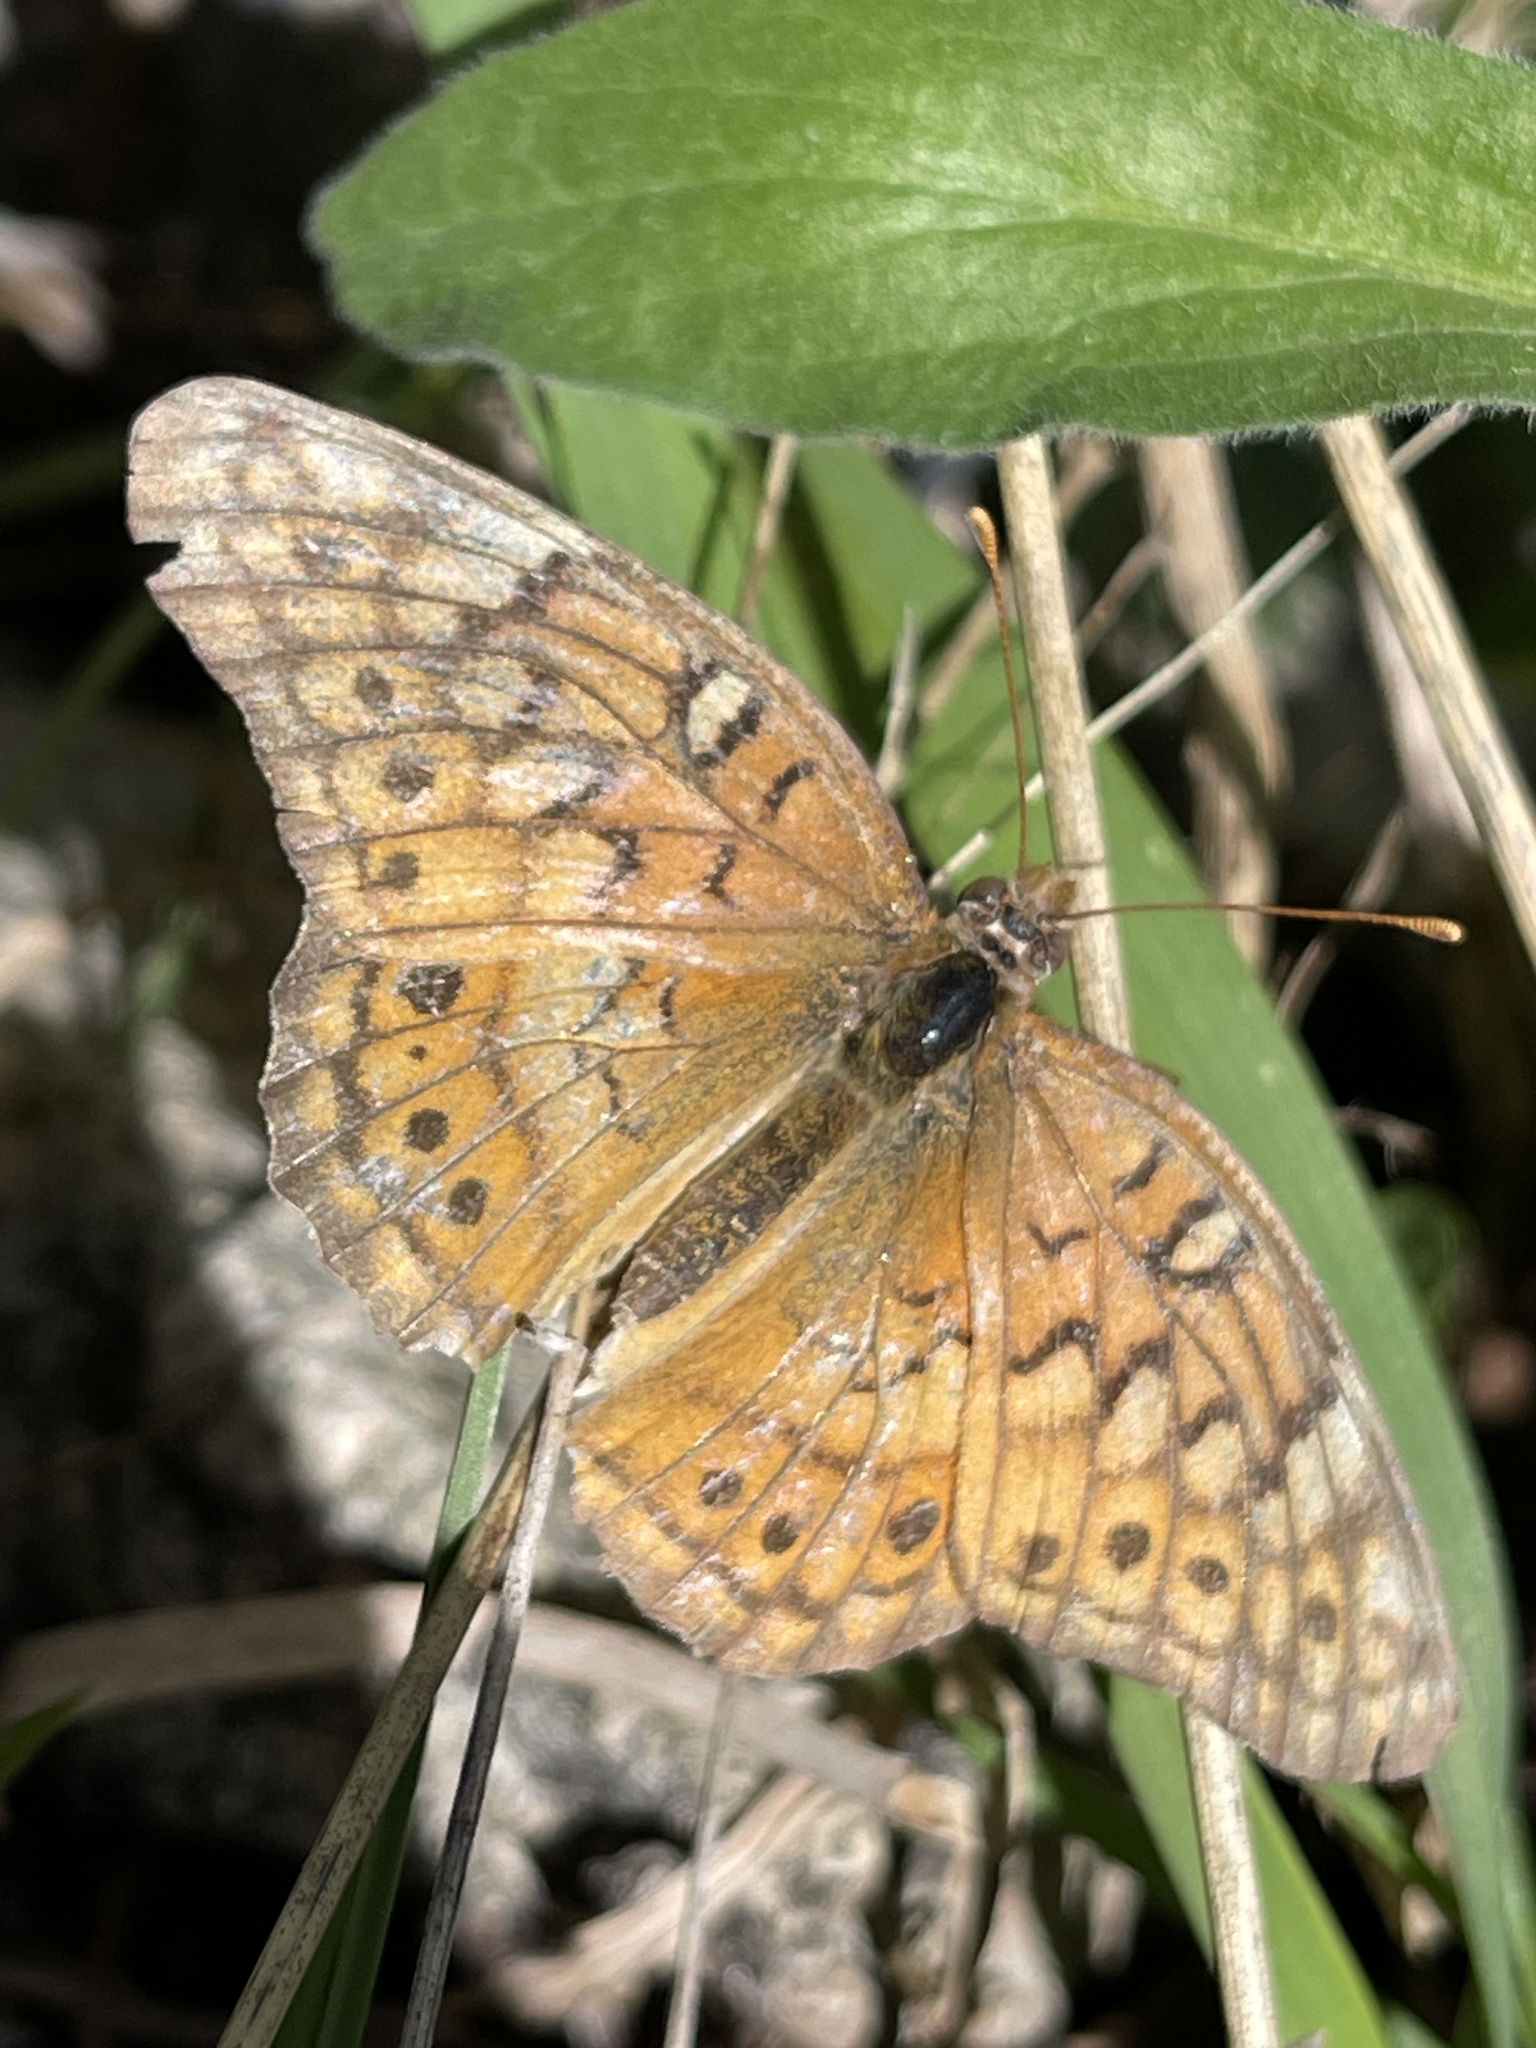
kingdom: Animalia
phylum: Arthropoda
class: Insecta
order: Lepidoptera
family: Nymphalidae
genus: Euptoieta
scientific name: Euptoieta claudia
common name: Variegated fritillary
